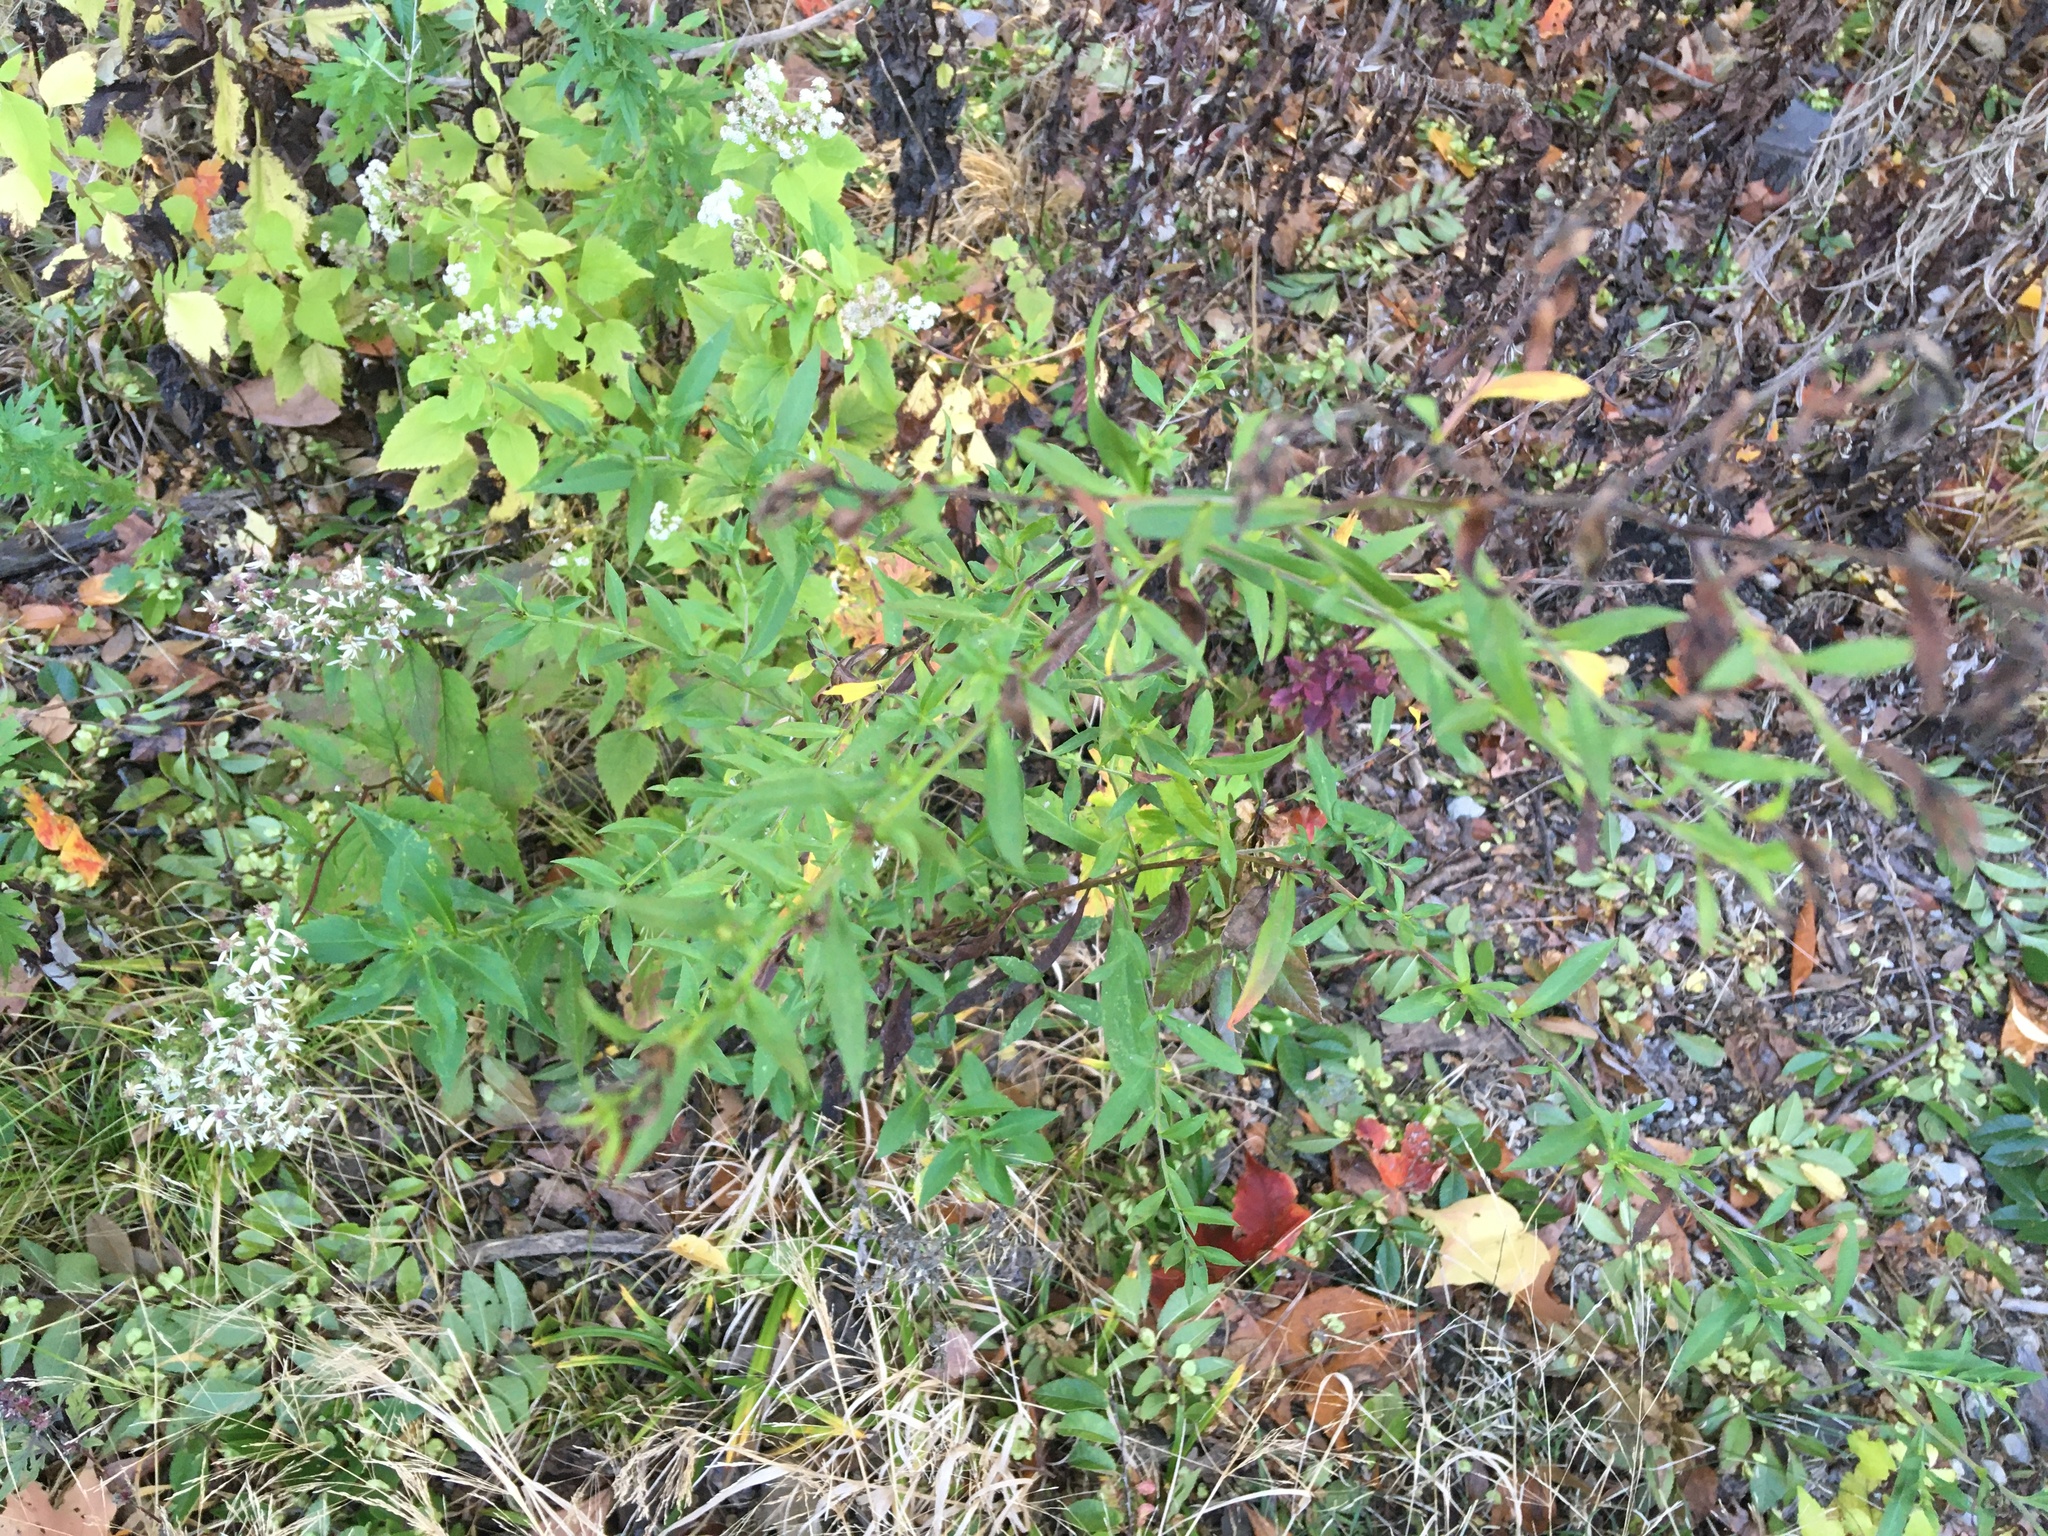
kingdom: Plantae
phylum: Tracheophyta
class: Magnoliopsida
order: Asterales
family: Asteraceae
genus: Artemisia
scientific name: Artemisia vulgaris
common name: Mugwort
